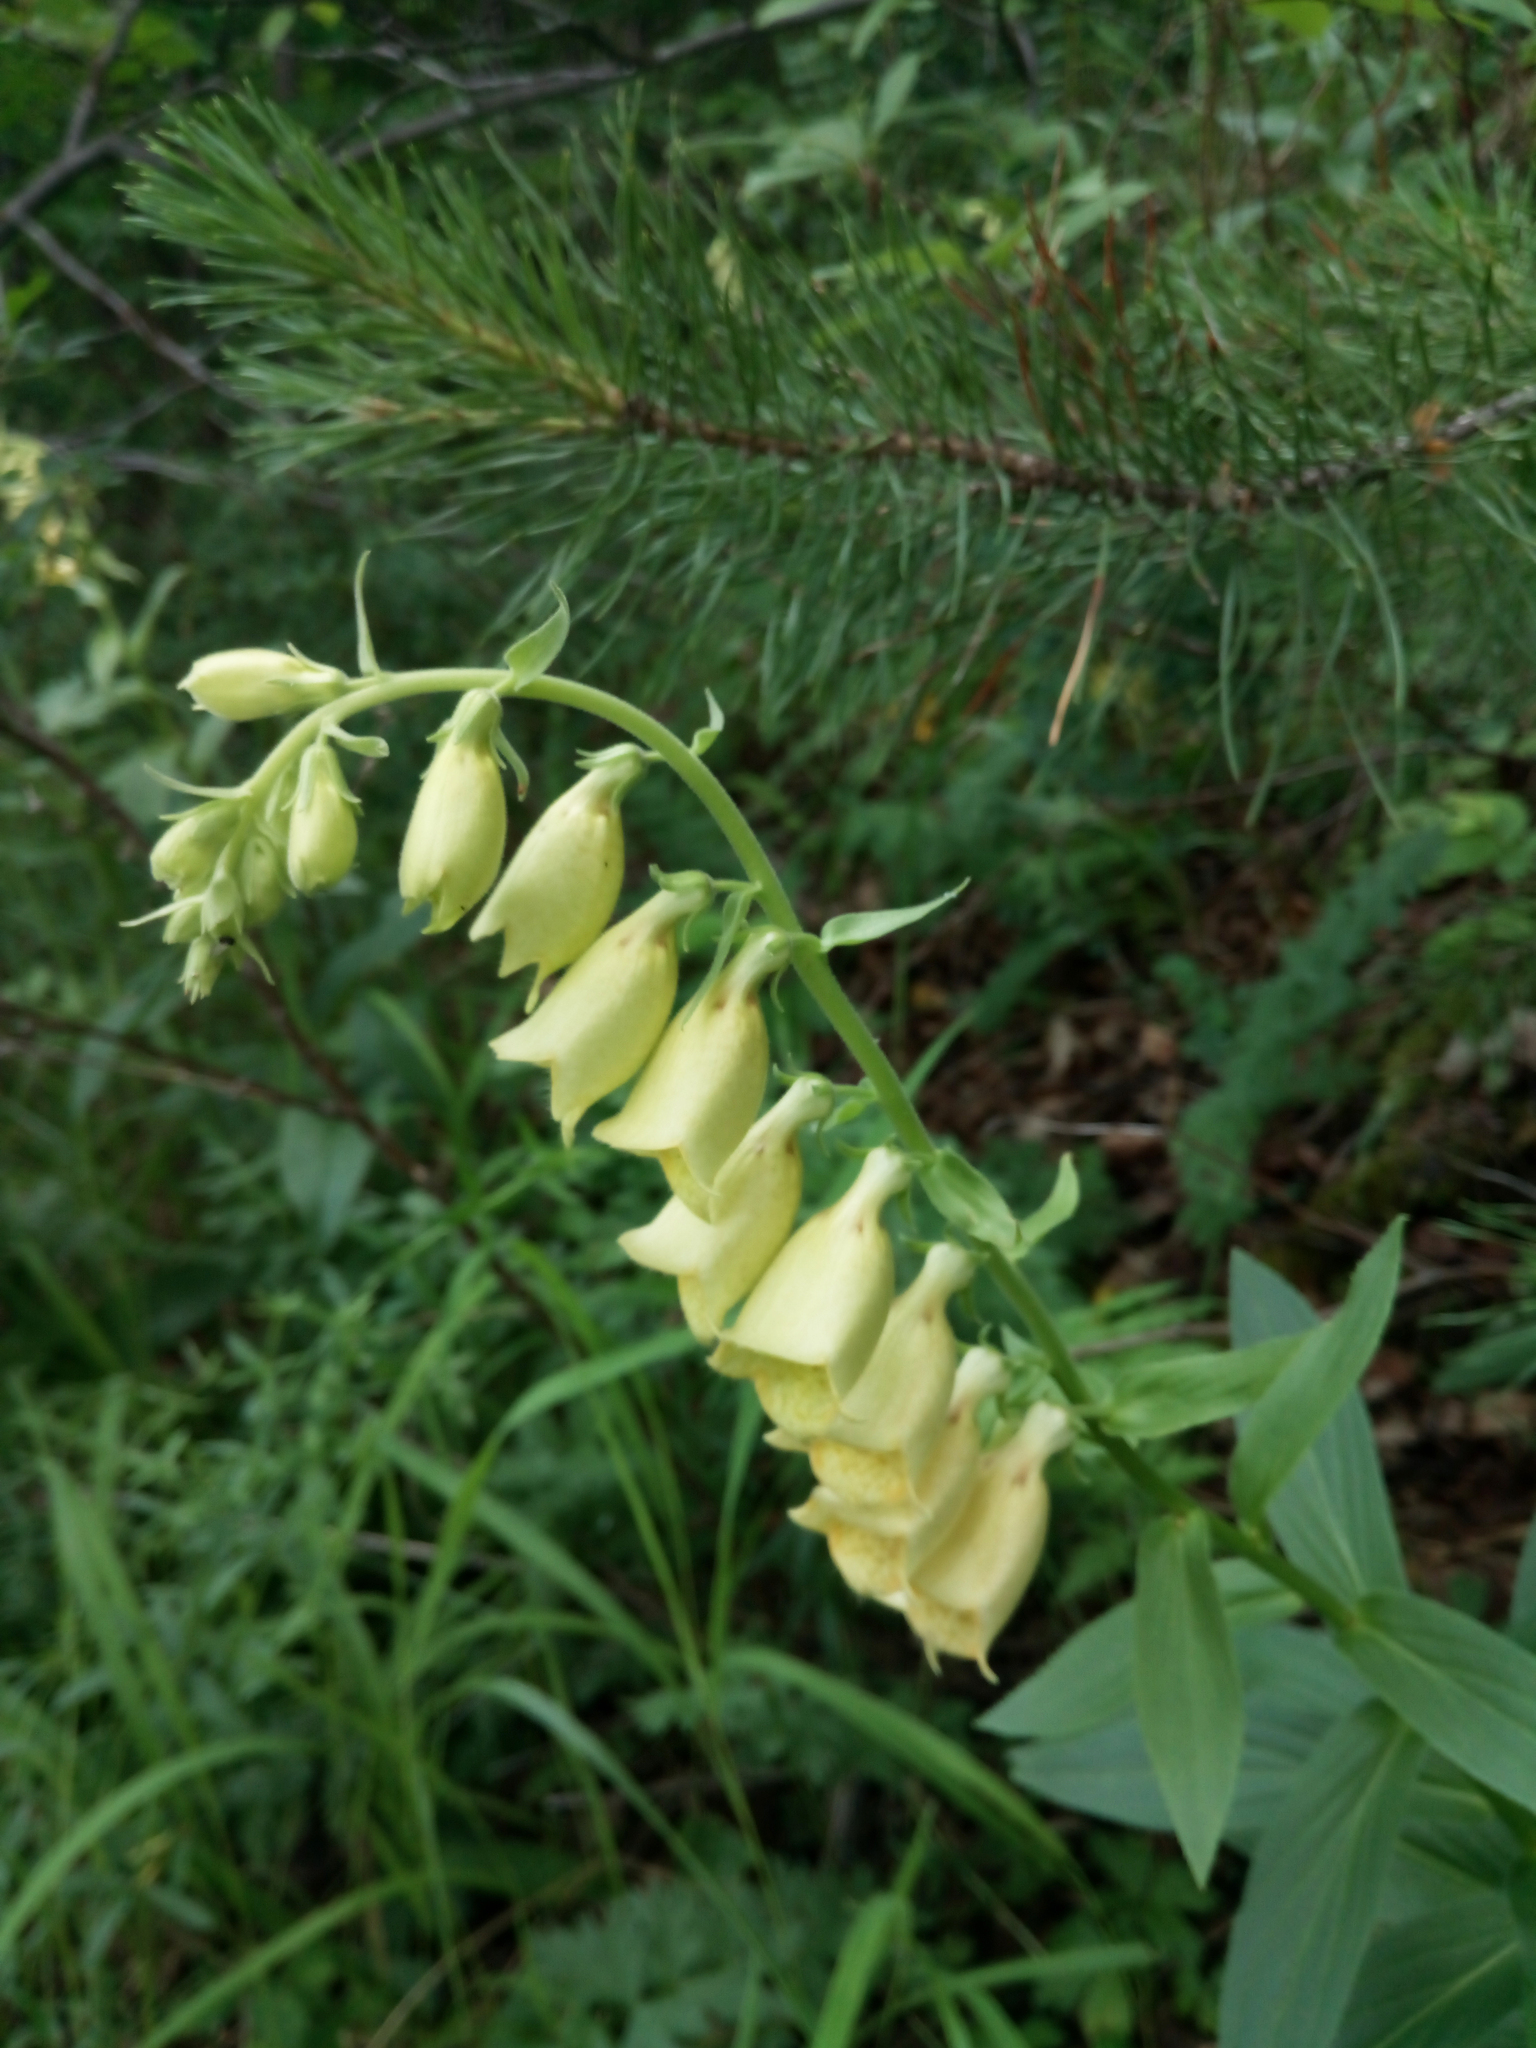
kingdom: Plantae
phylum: Tracheophyta
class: Magnoliopsida
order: Lamiales
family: Plantaginaceae
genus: Digitalis
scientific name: Digitalis grandiflora
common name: Yellow foxglove
